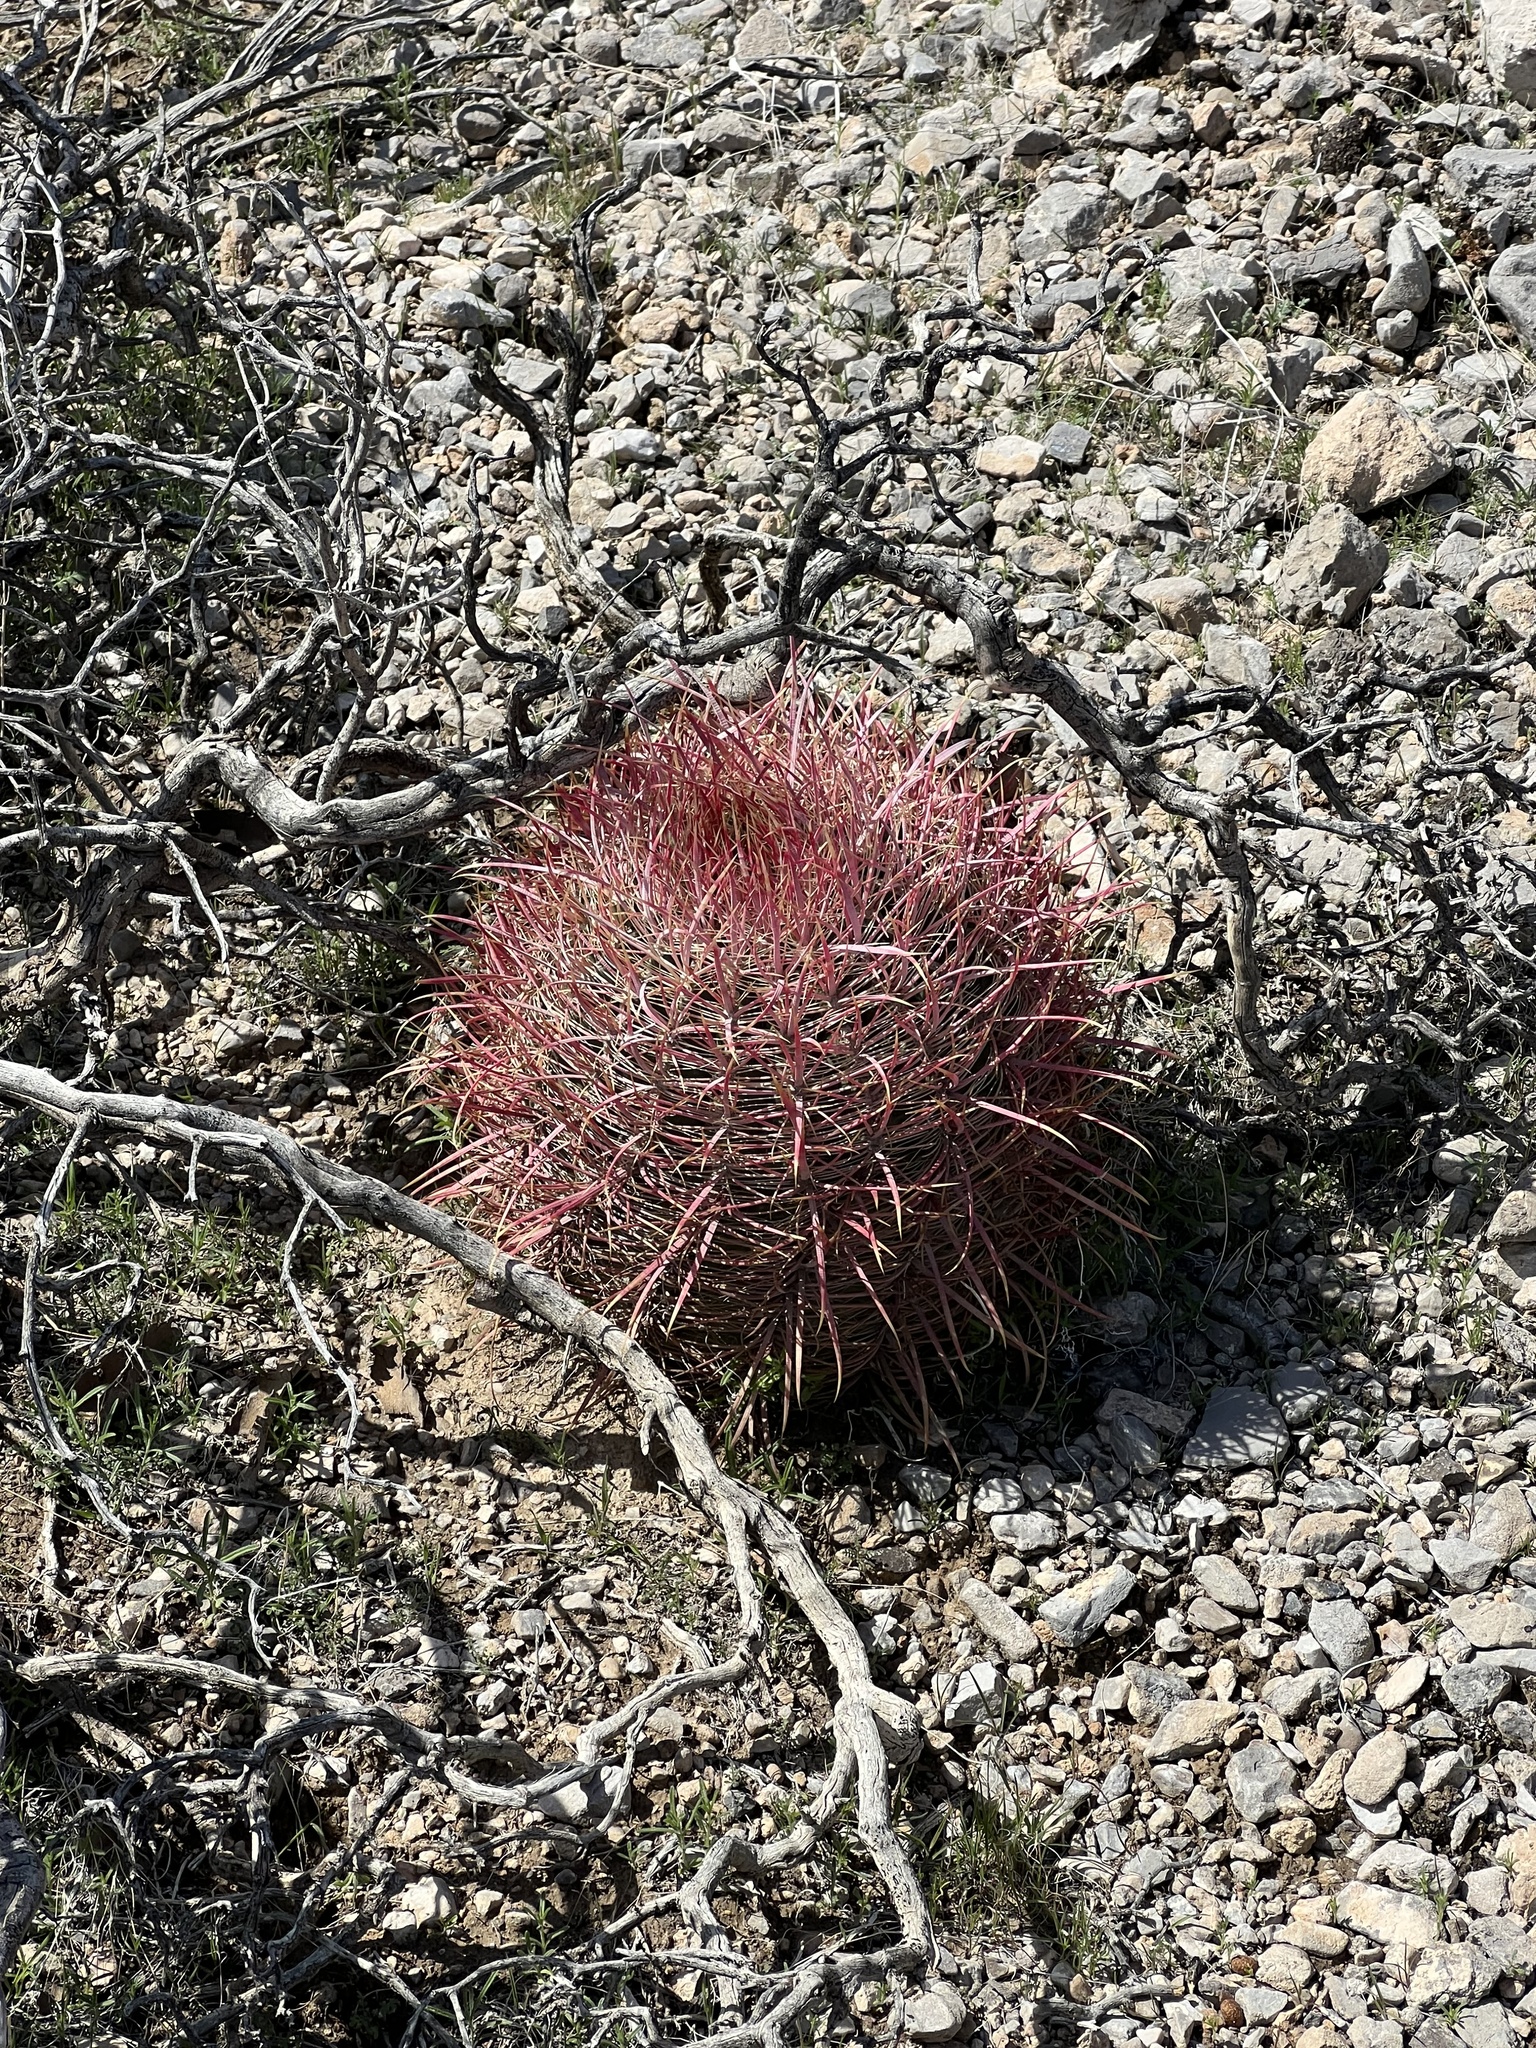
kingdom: Plantae
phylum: Tracheophyta
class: Magnoliopsida
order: Caryophyllales
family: Cactaceae
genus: Ferocactus
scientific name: Ferocactus cylindraceus
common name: California barrel cactus
